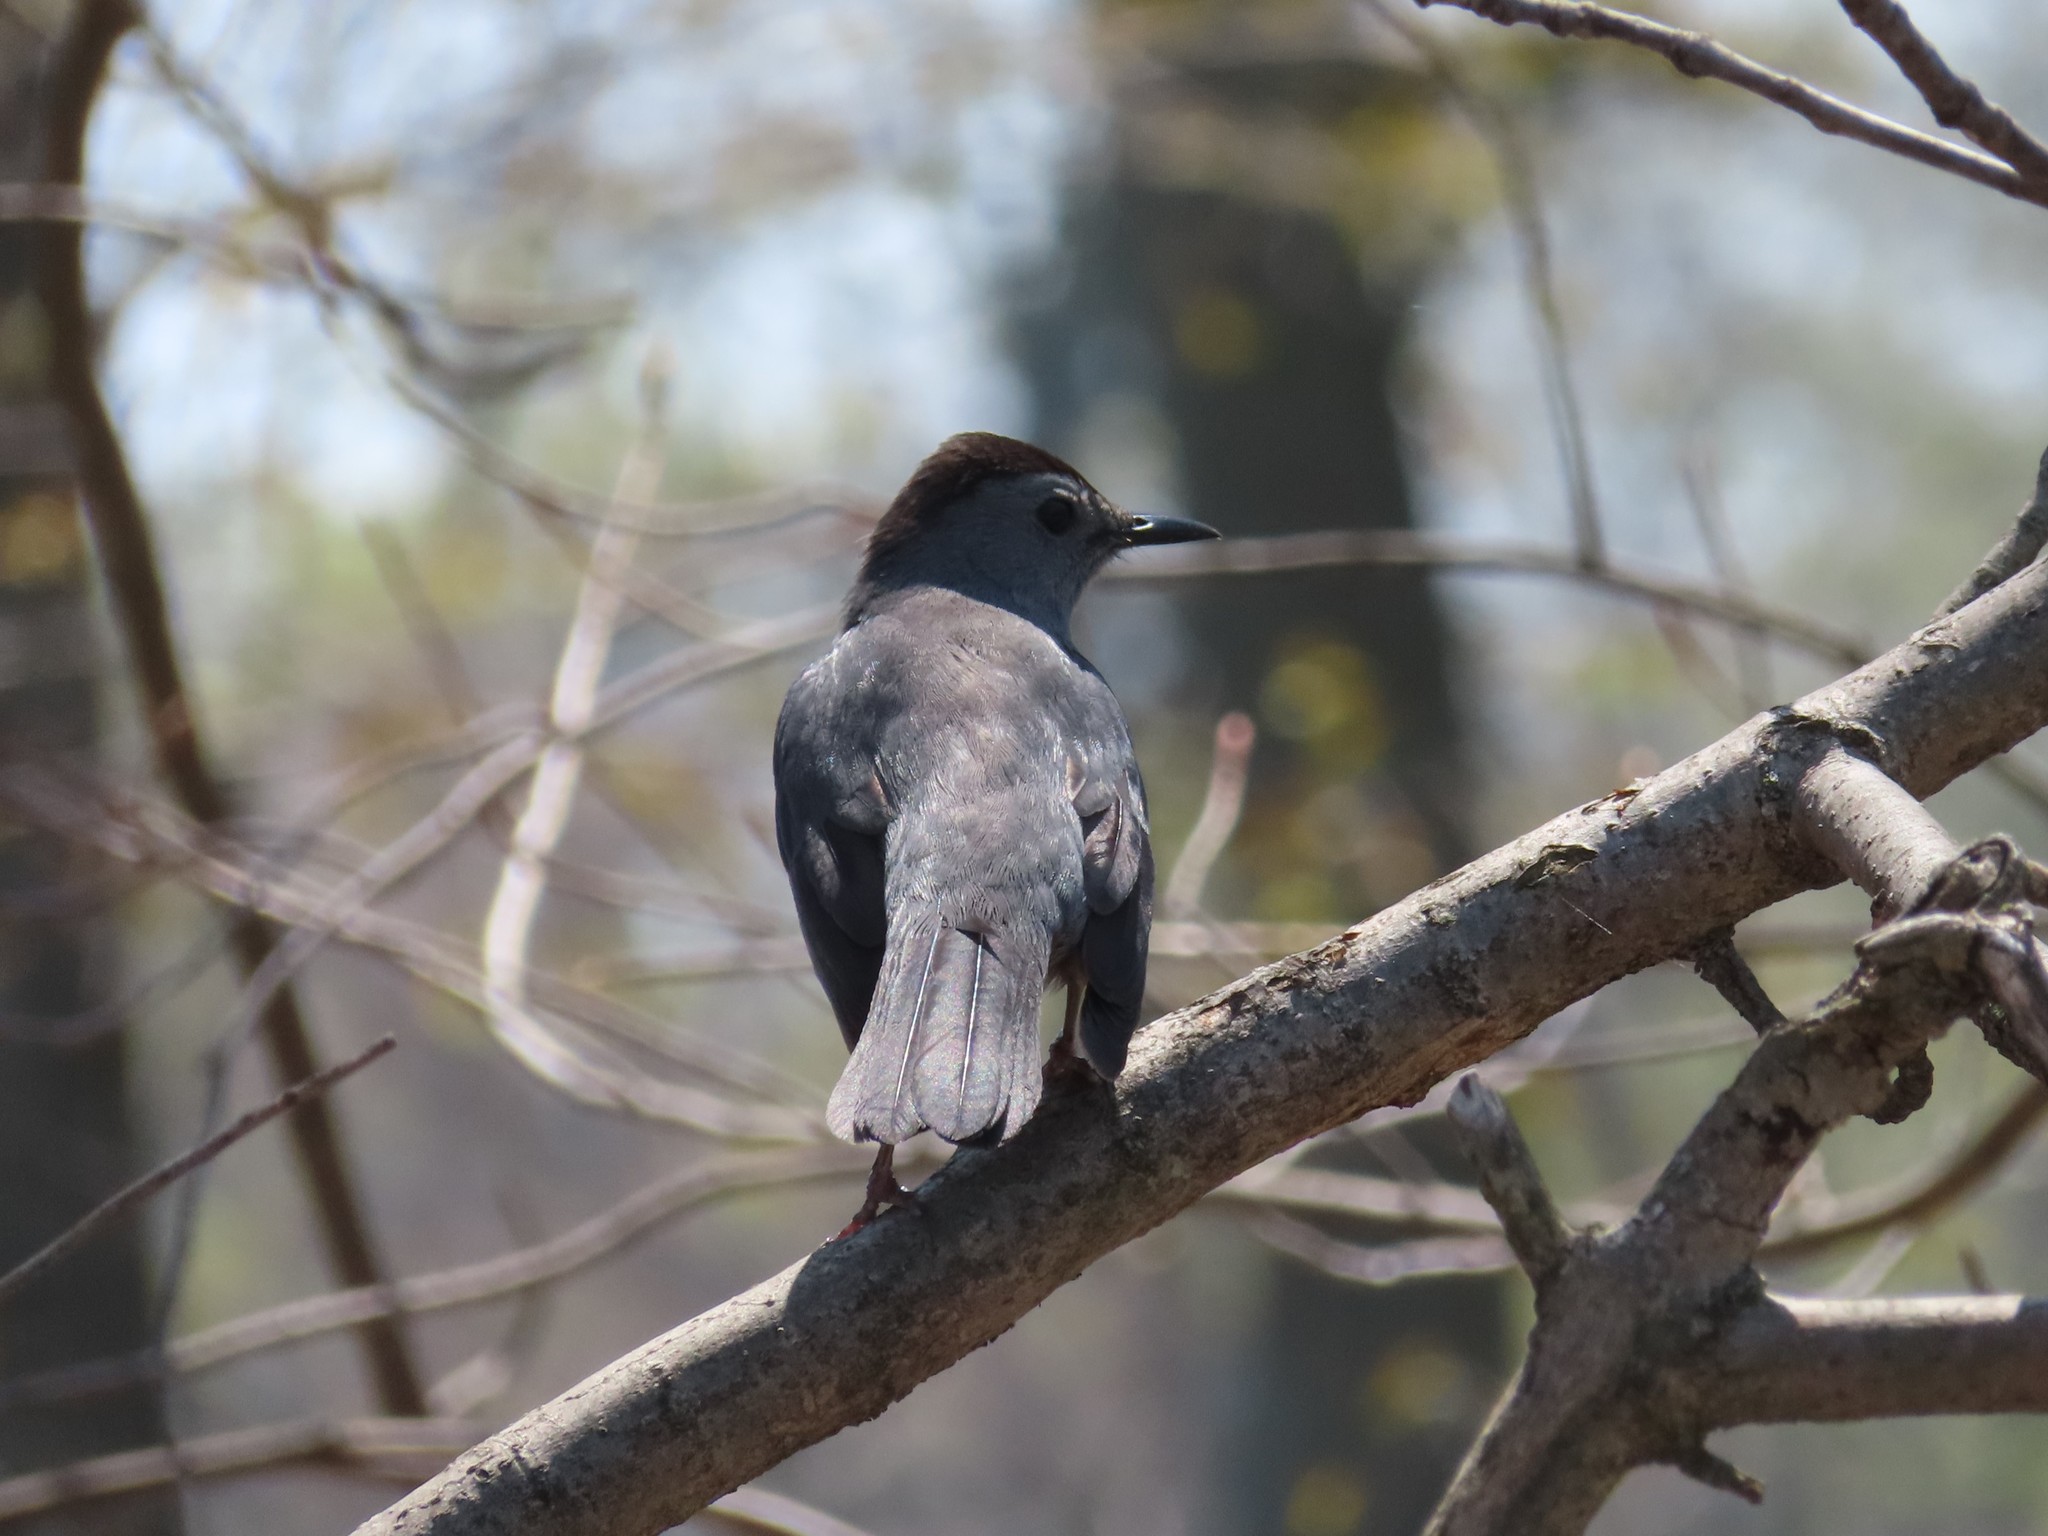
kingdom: Animalia
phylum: Chordata
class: Aves
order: Passeriformes
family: Mimidae
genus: Dumetella
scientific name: Dumetella carolinensis
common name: Gray catbird
